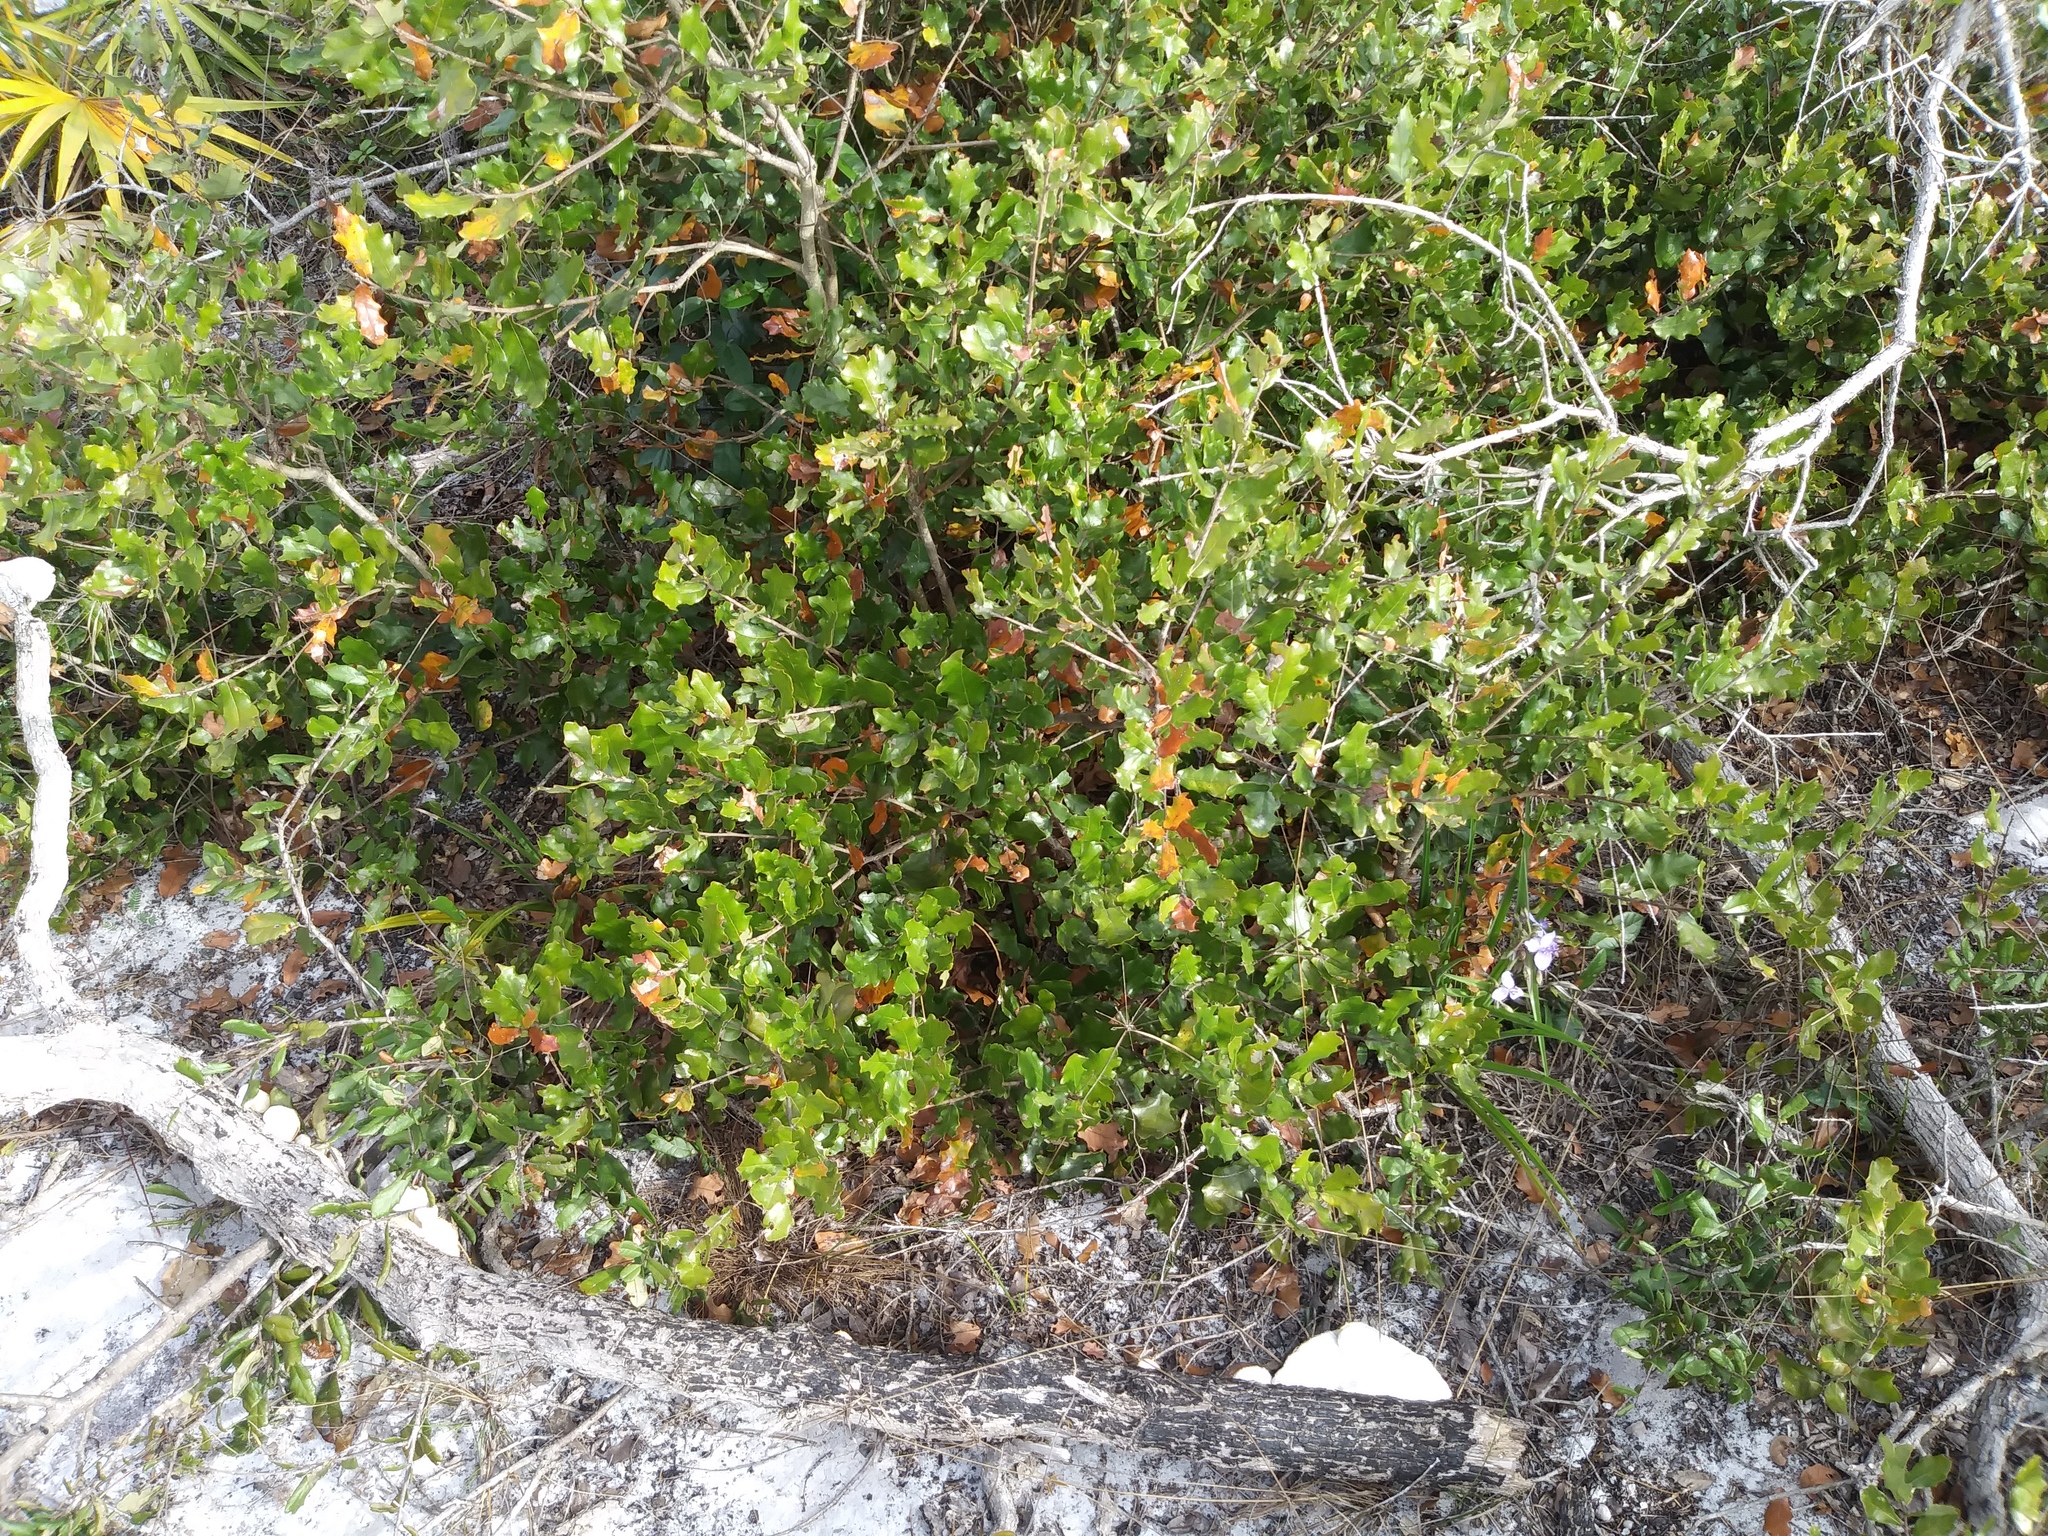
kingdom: Plantae
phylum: Tracheophyta
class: Magnoliopsida
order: Fagales
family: Fagaceae
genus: Quercus
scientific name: Quercus chapmanii
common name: Chapman oak
